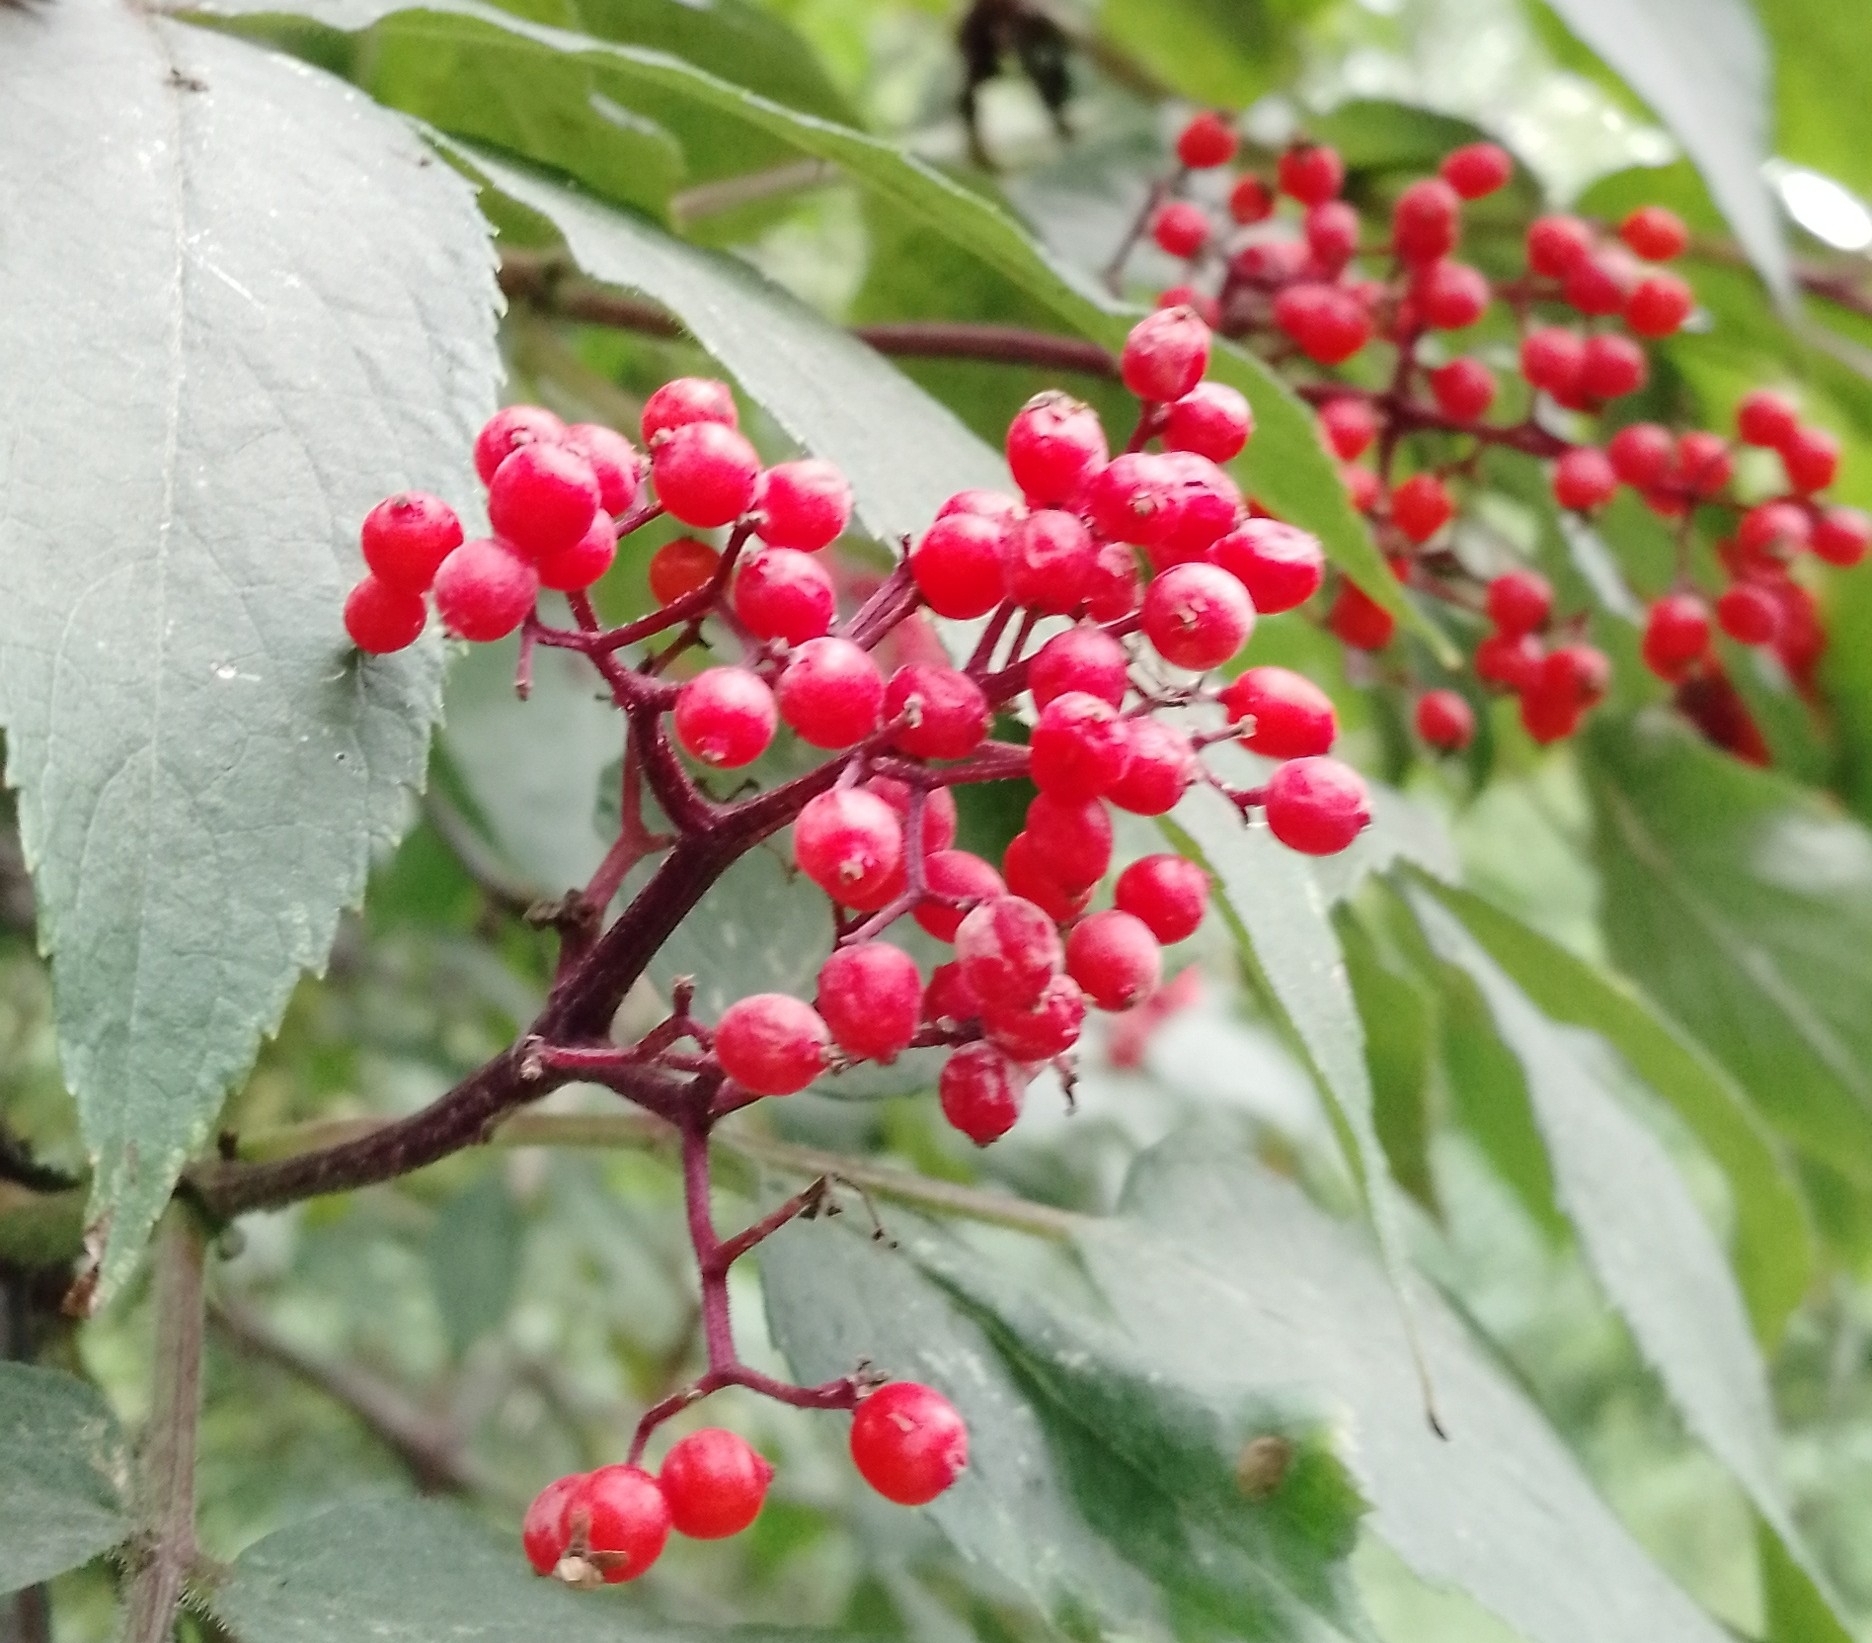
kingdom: Plantae
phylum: Tracheophyta
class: Magnoliopsida
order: Dipsacales
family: Viburnaceae
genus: Sambucus
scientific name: Sambucus sibirica
